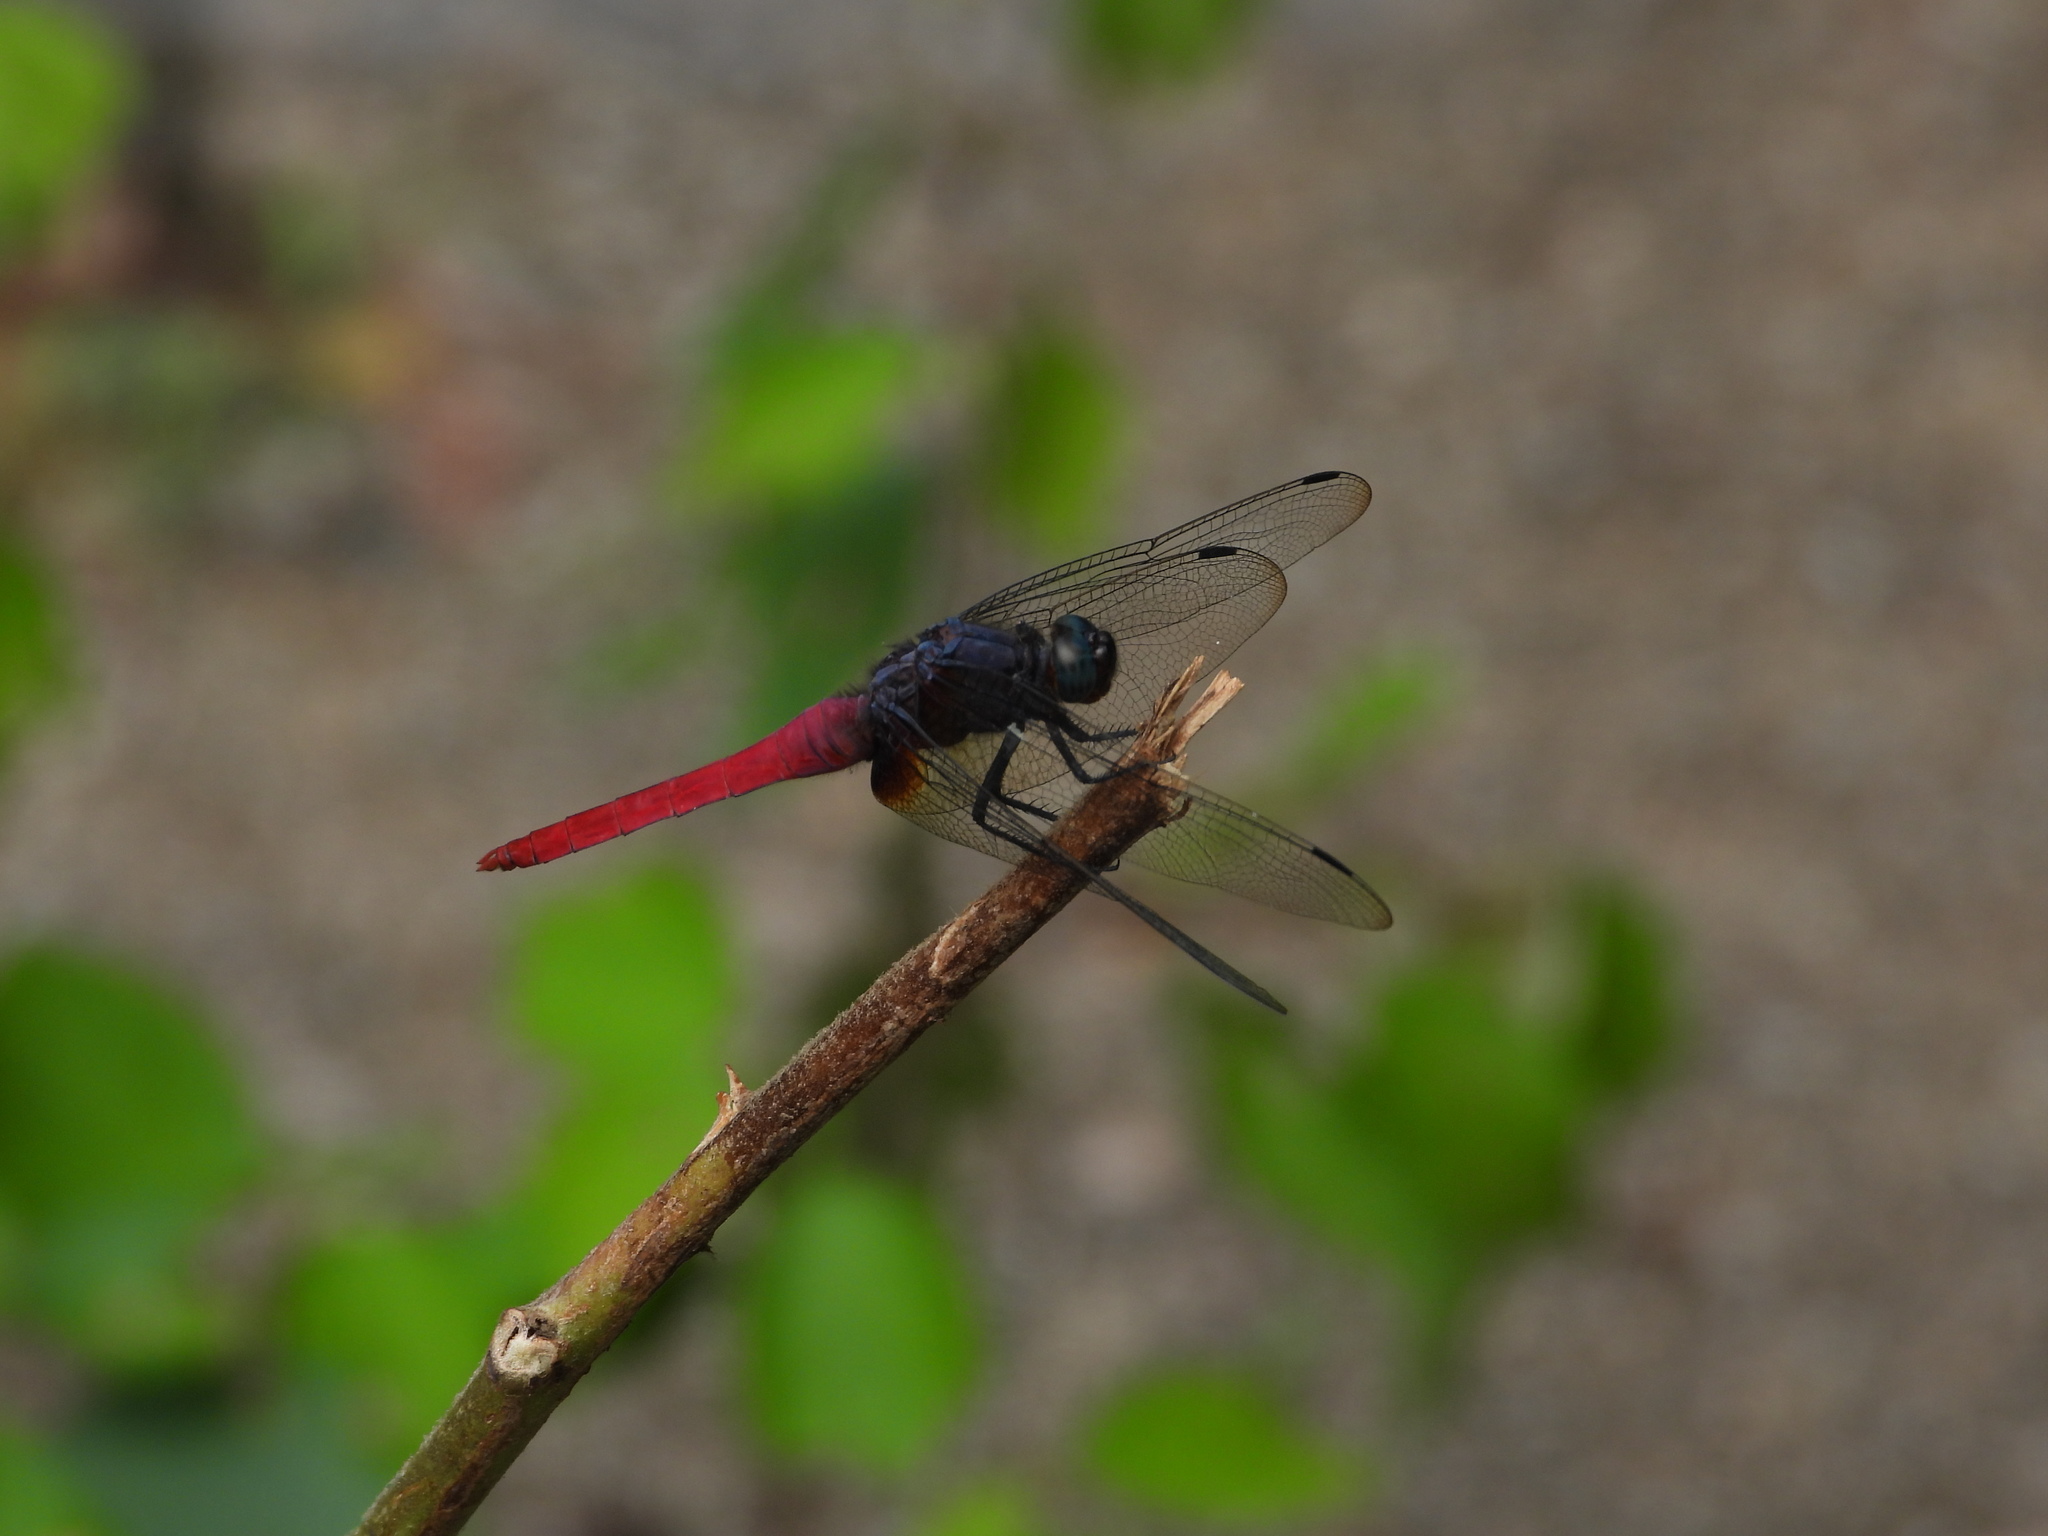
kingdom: Animalia
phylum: Arthropoda
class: Insecta
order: Odonata
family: Libellulidae
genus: Orthetrum
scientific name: Orthetrum pruinosum
